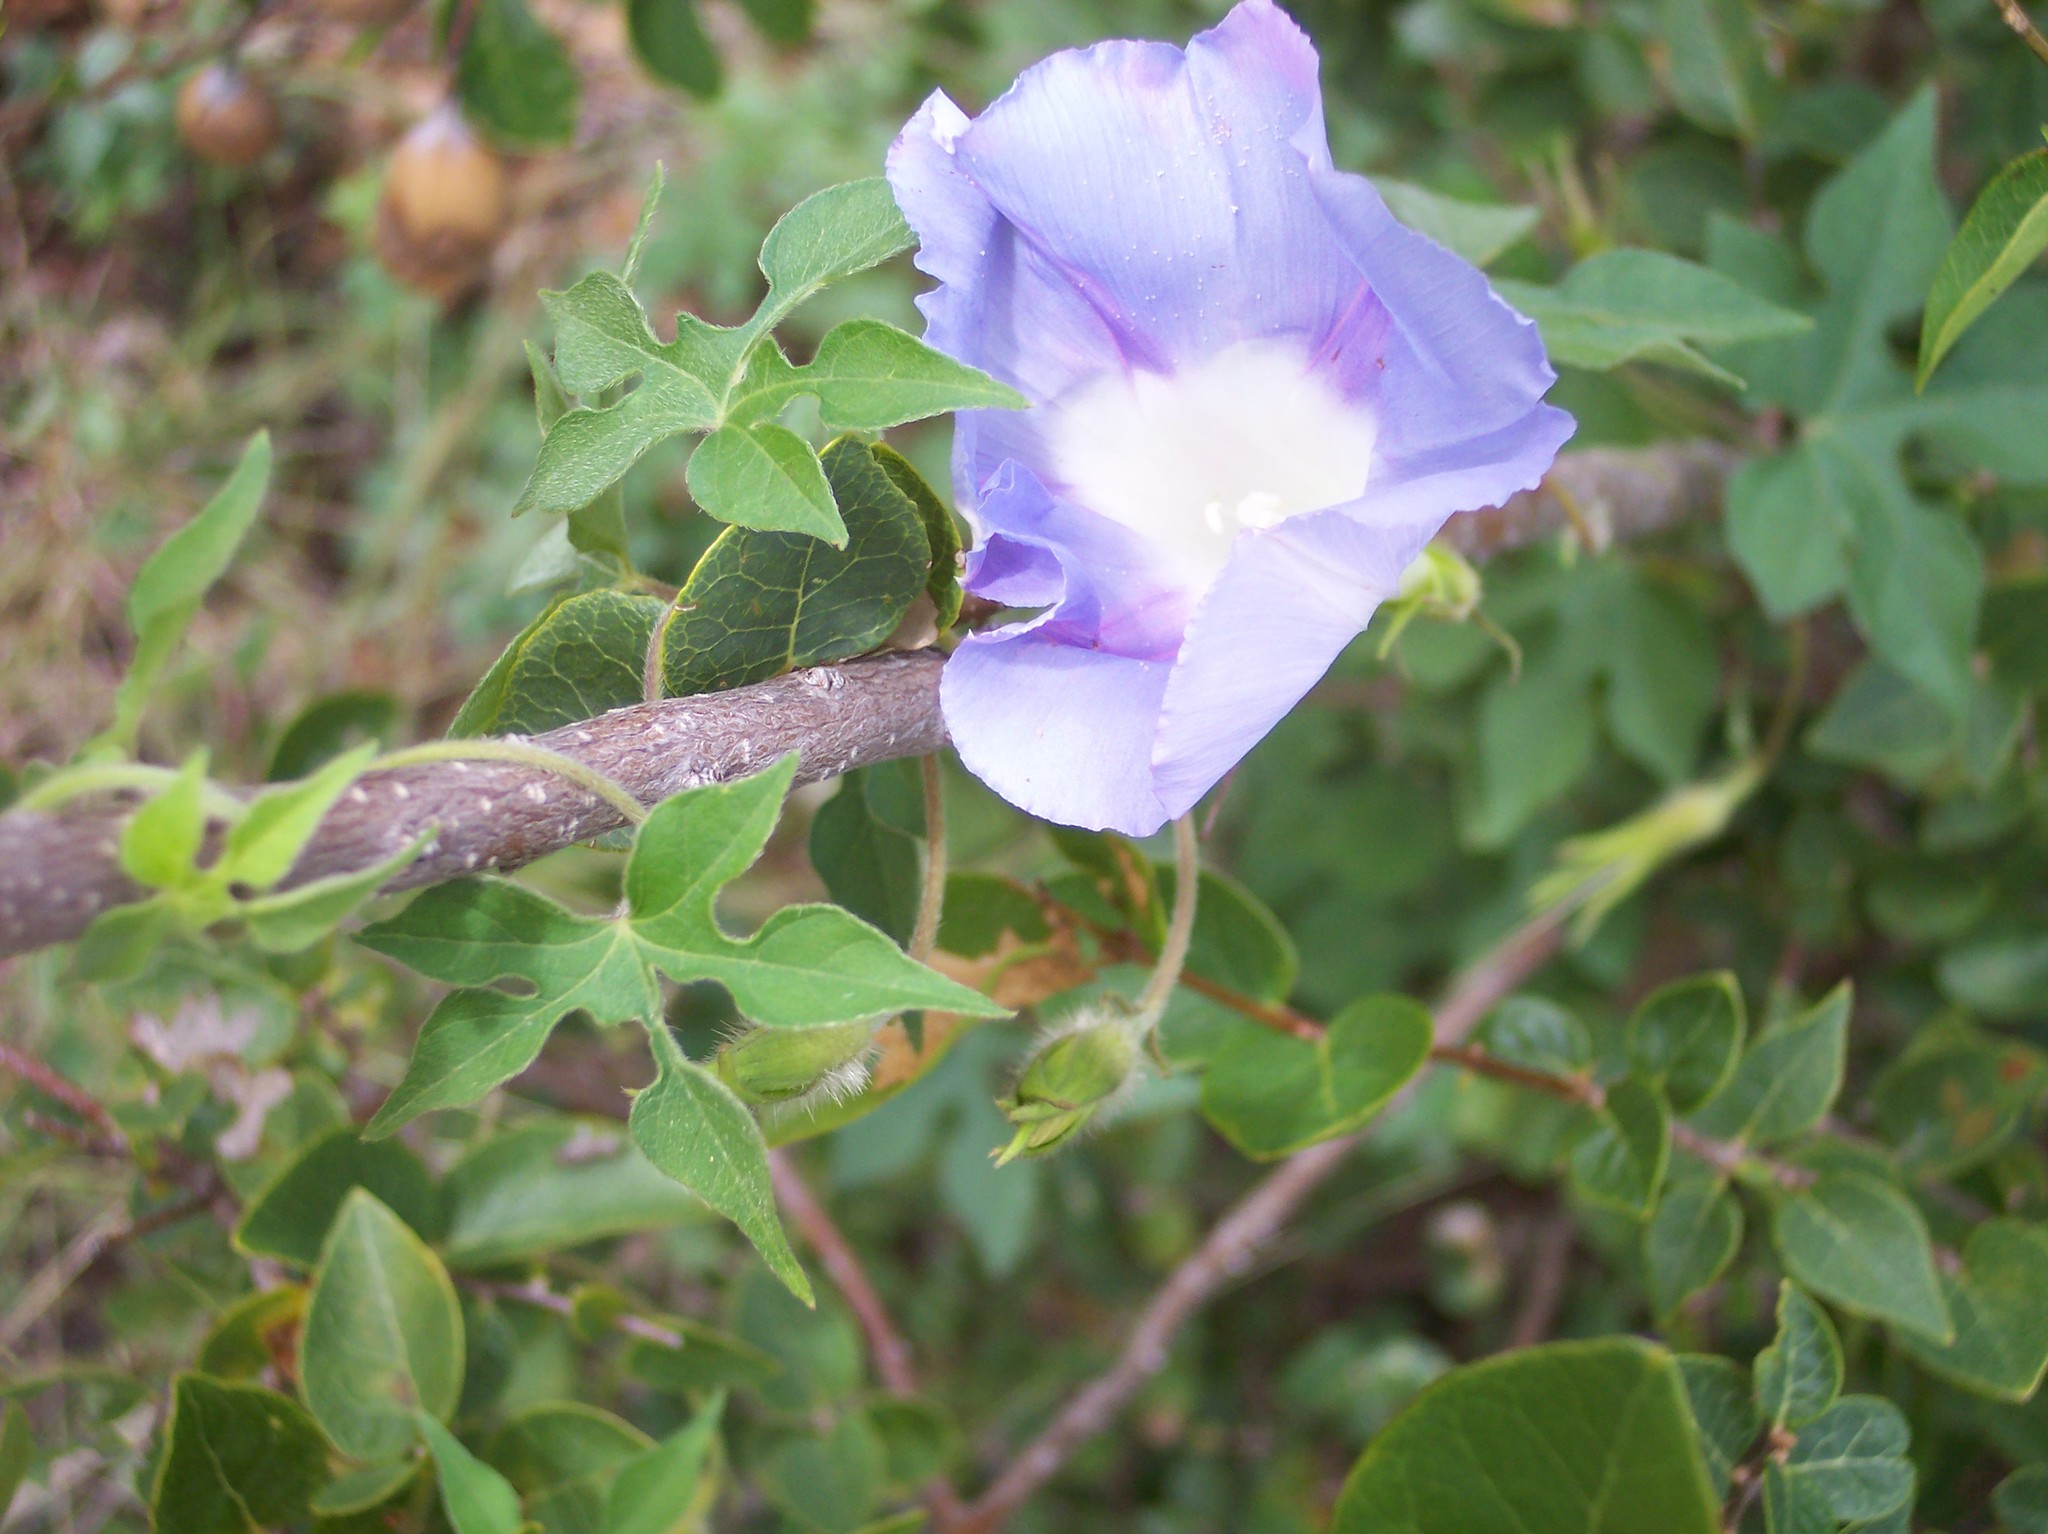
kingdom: Plantae
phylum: Tracheophyta
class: Magnoliopsida
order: Solanales
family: Convolvulaceae
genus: Ipomoea
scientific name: Ipomoea lindheimeri
